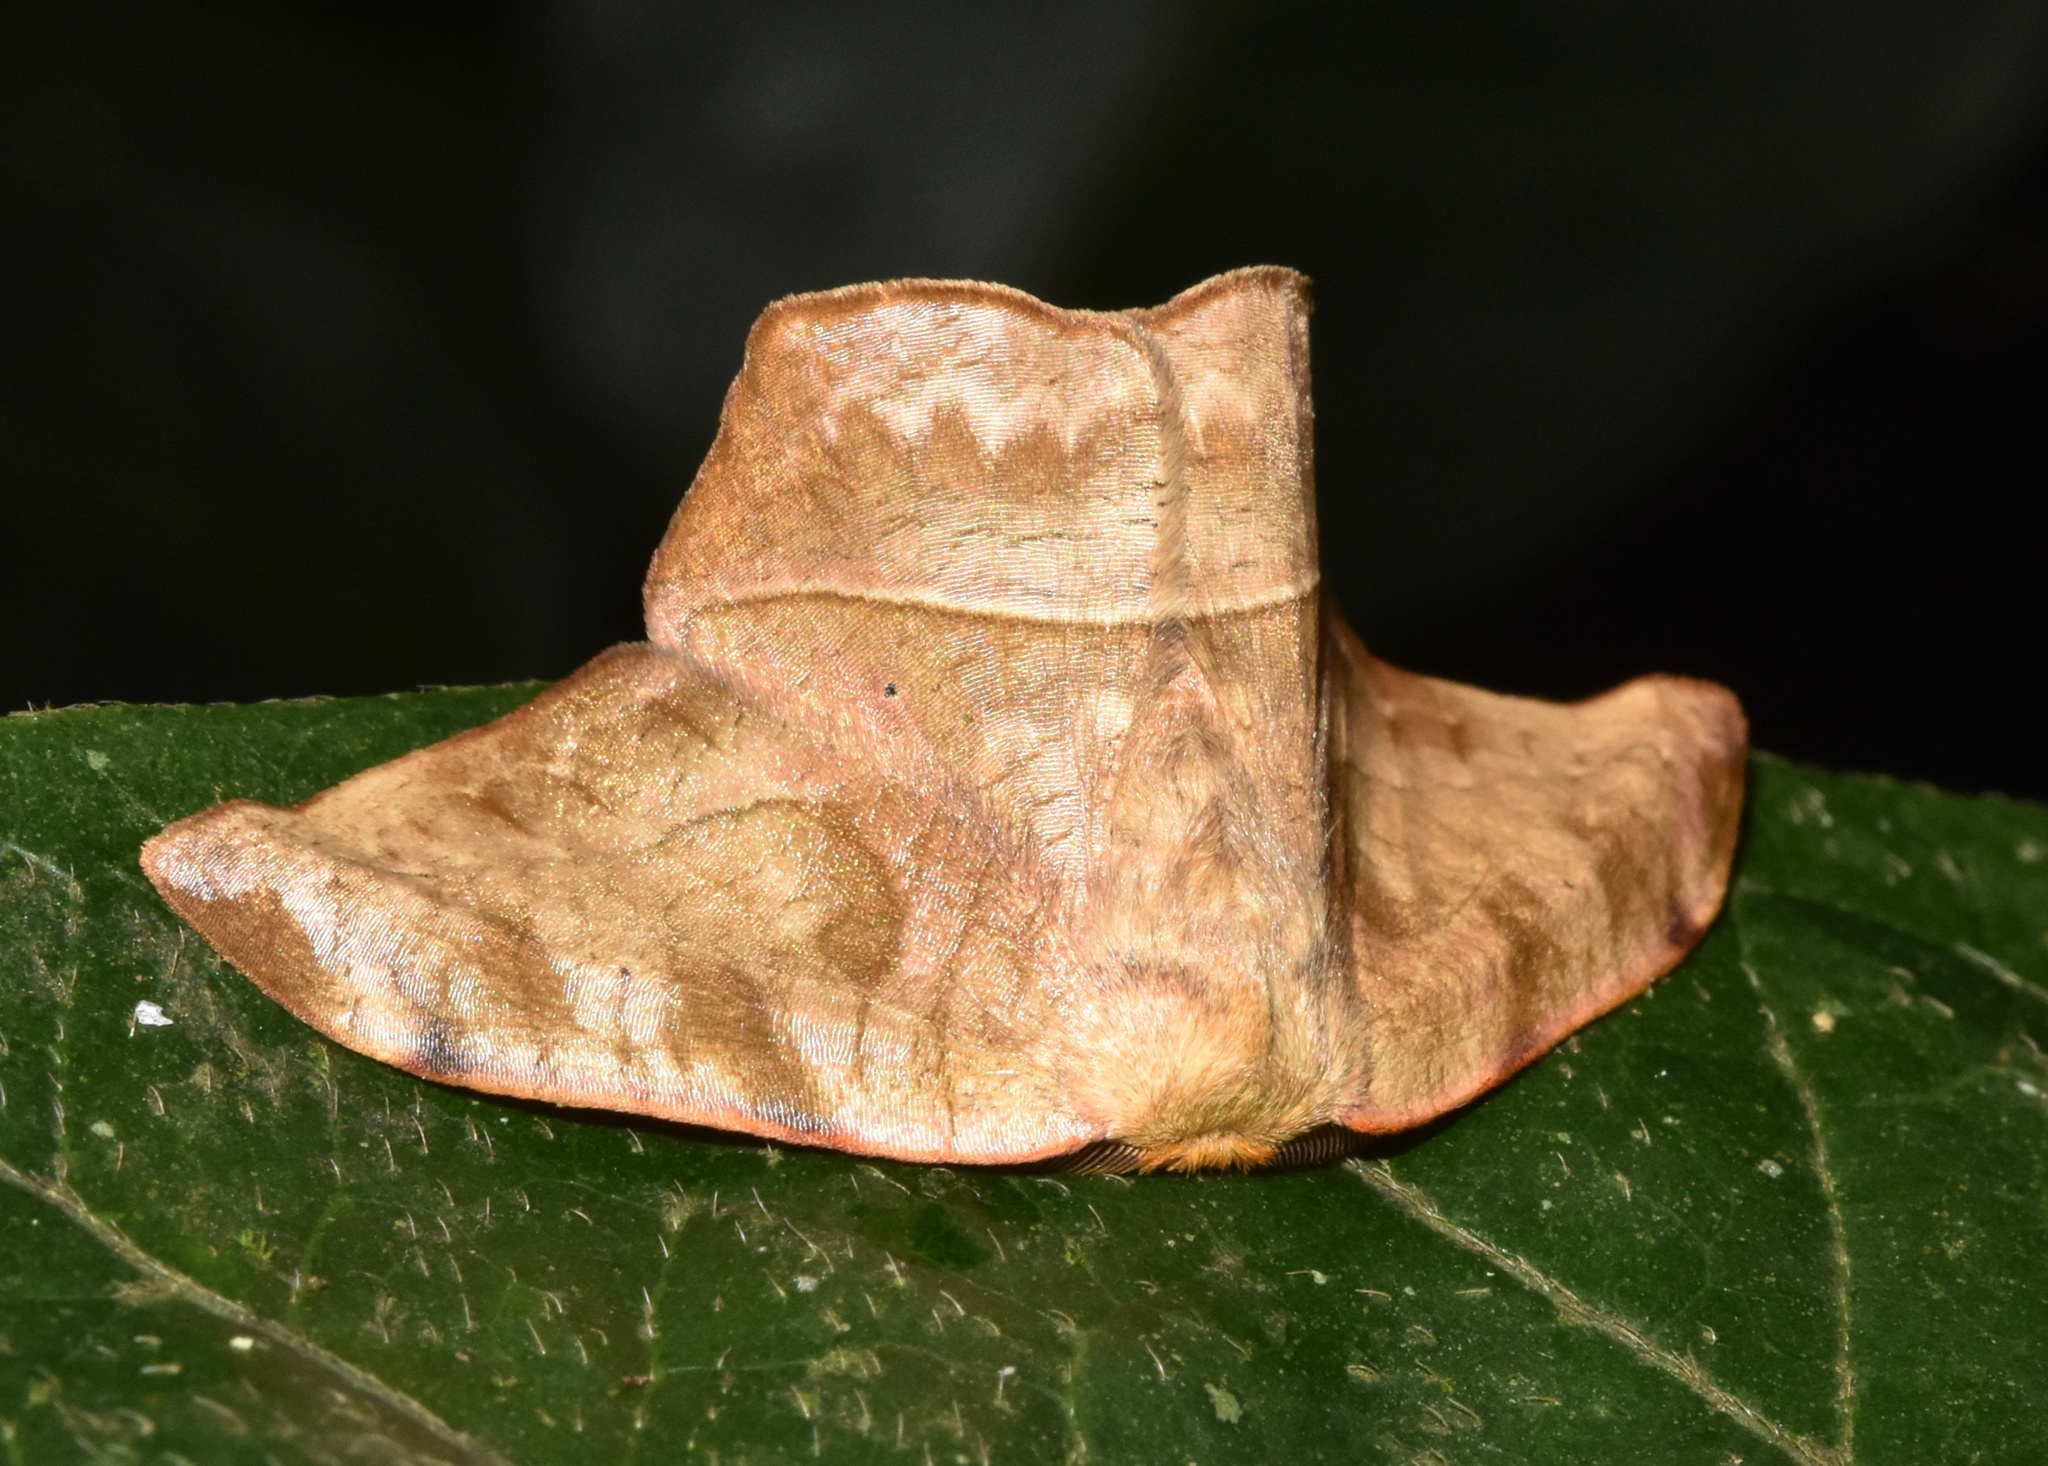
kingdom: Animalia
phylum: Arthropoda
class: Insecta
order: Lepidoptera
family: Drepanidae
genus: Negera
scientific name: Negera natalensis
